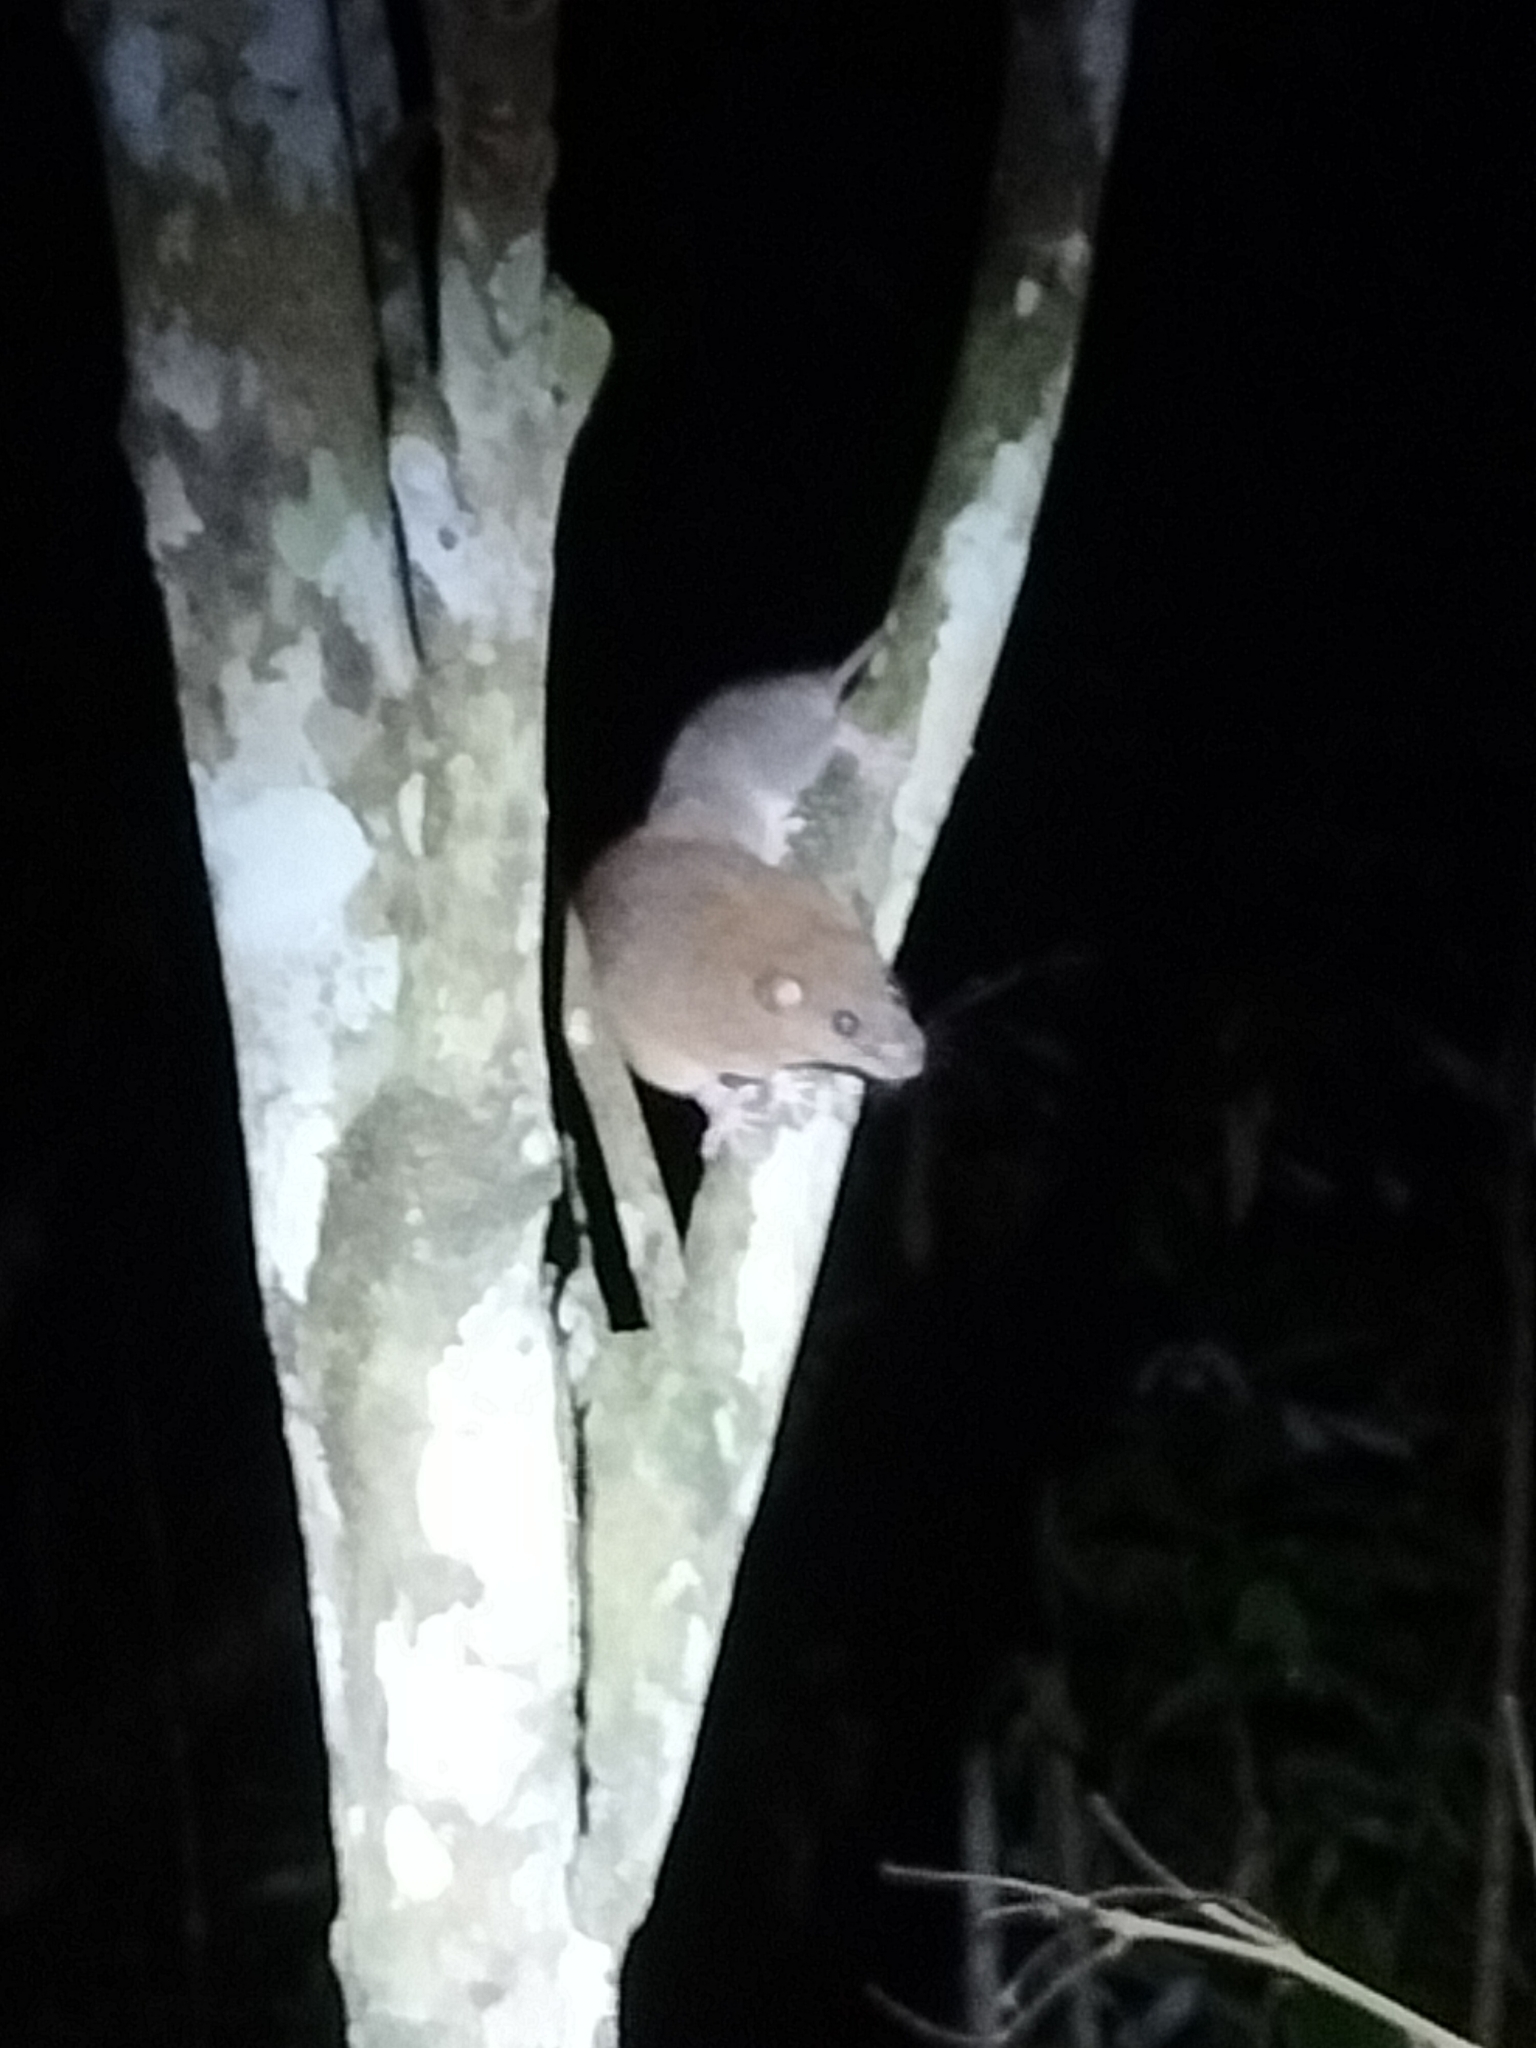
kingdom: Animalia
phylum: Chordata
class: Mammalia
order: Rodentia
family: Muridae
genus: Melomys
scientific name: Melomys cervinipes
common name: Fawn-footed melomys
